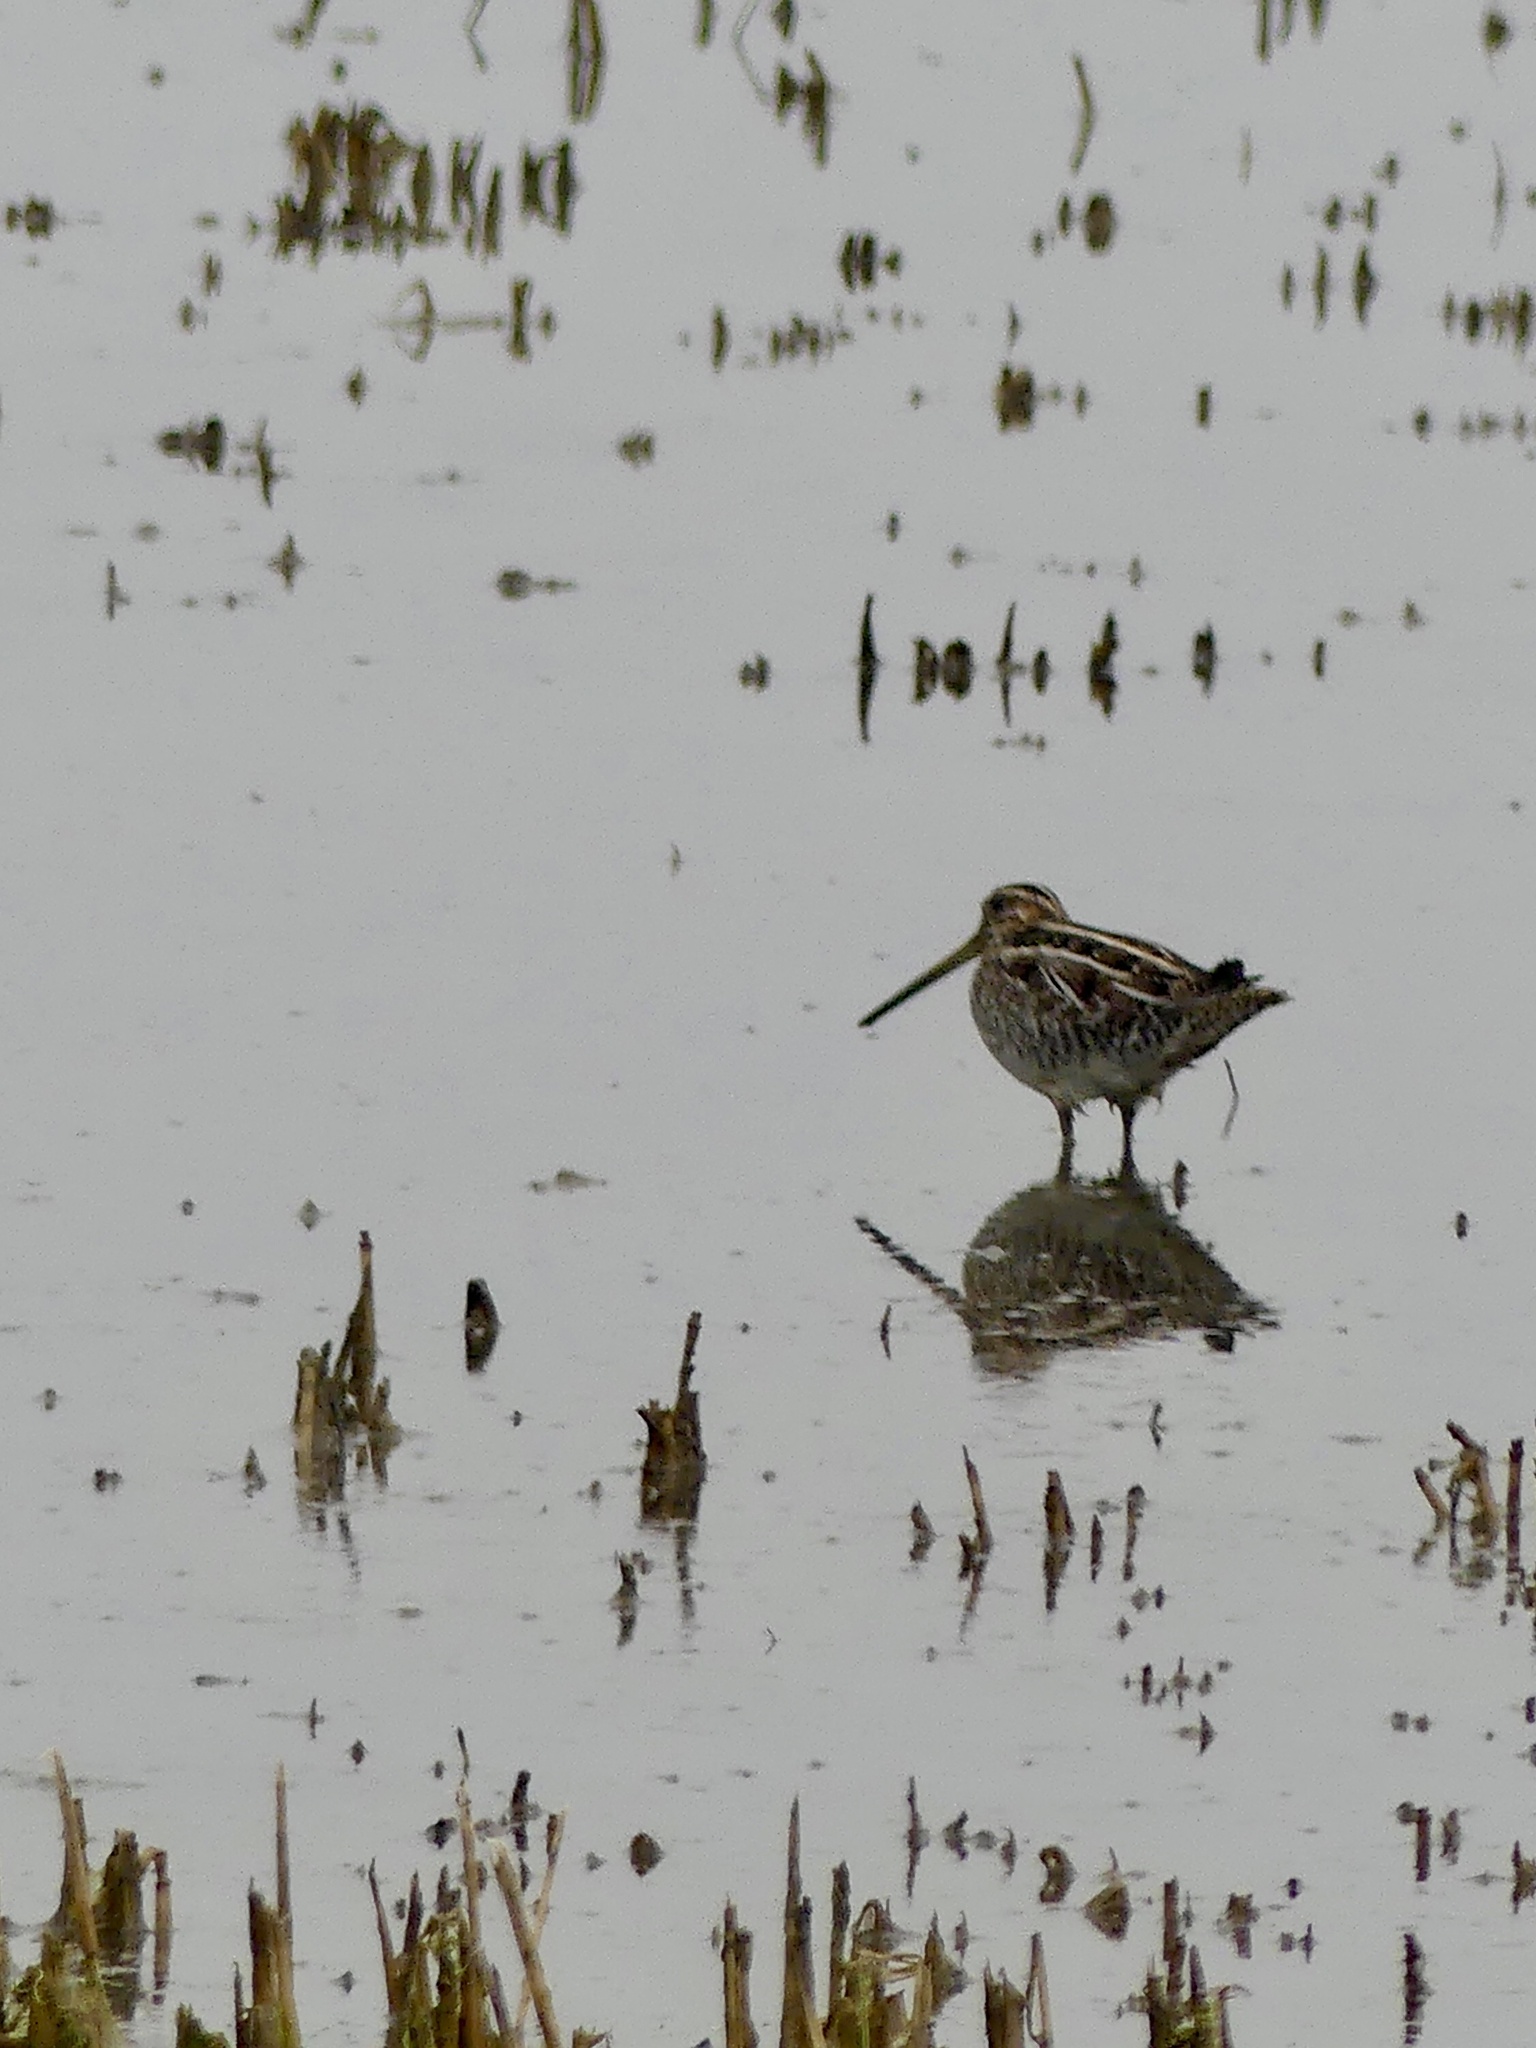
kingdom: Animalia
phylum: Chordata
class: Aves
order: Charadriiformes
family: Scolopacidae
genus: Gallinago
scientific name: Gallinago delicata
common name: Wilson's snipe
